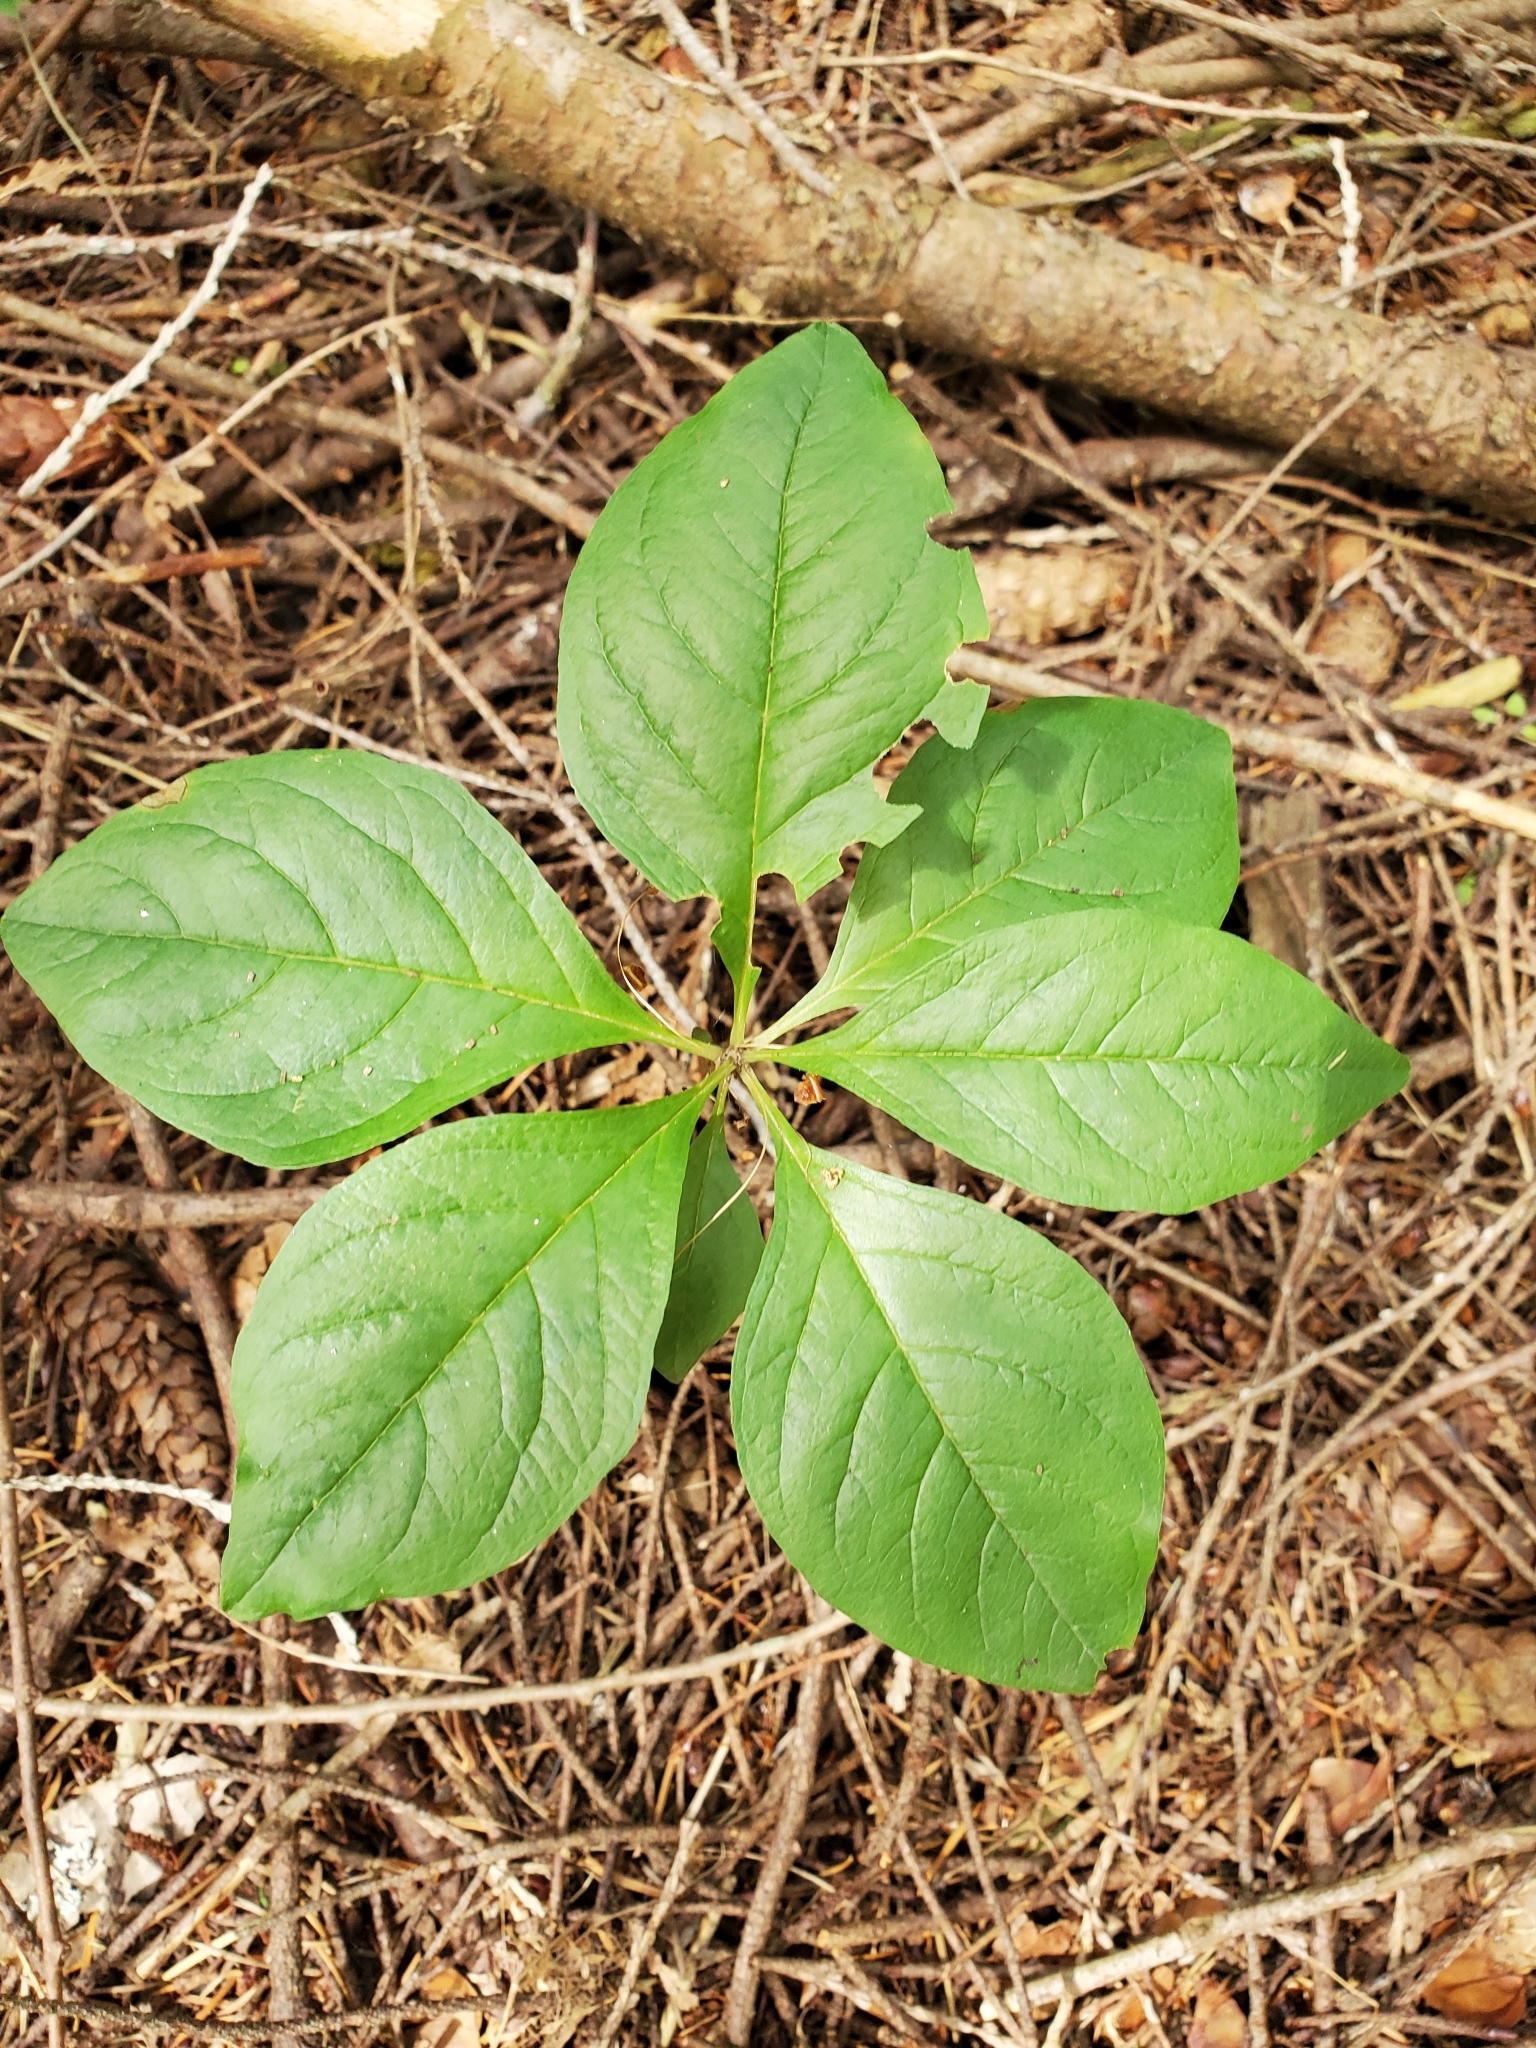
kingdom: Plantae
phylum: Tracheophyta
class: Magnoliopsida
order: Ericales
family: Primulaceae
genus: Lysimachia
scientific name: Lysimachia latifolia
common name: Pacific starflower
